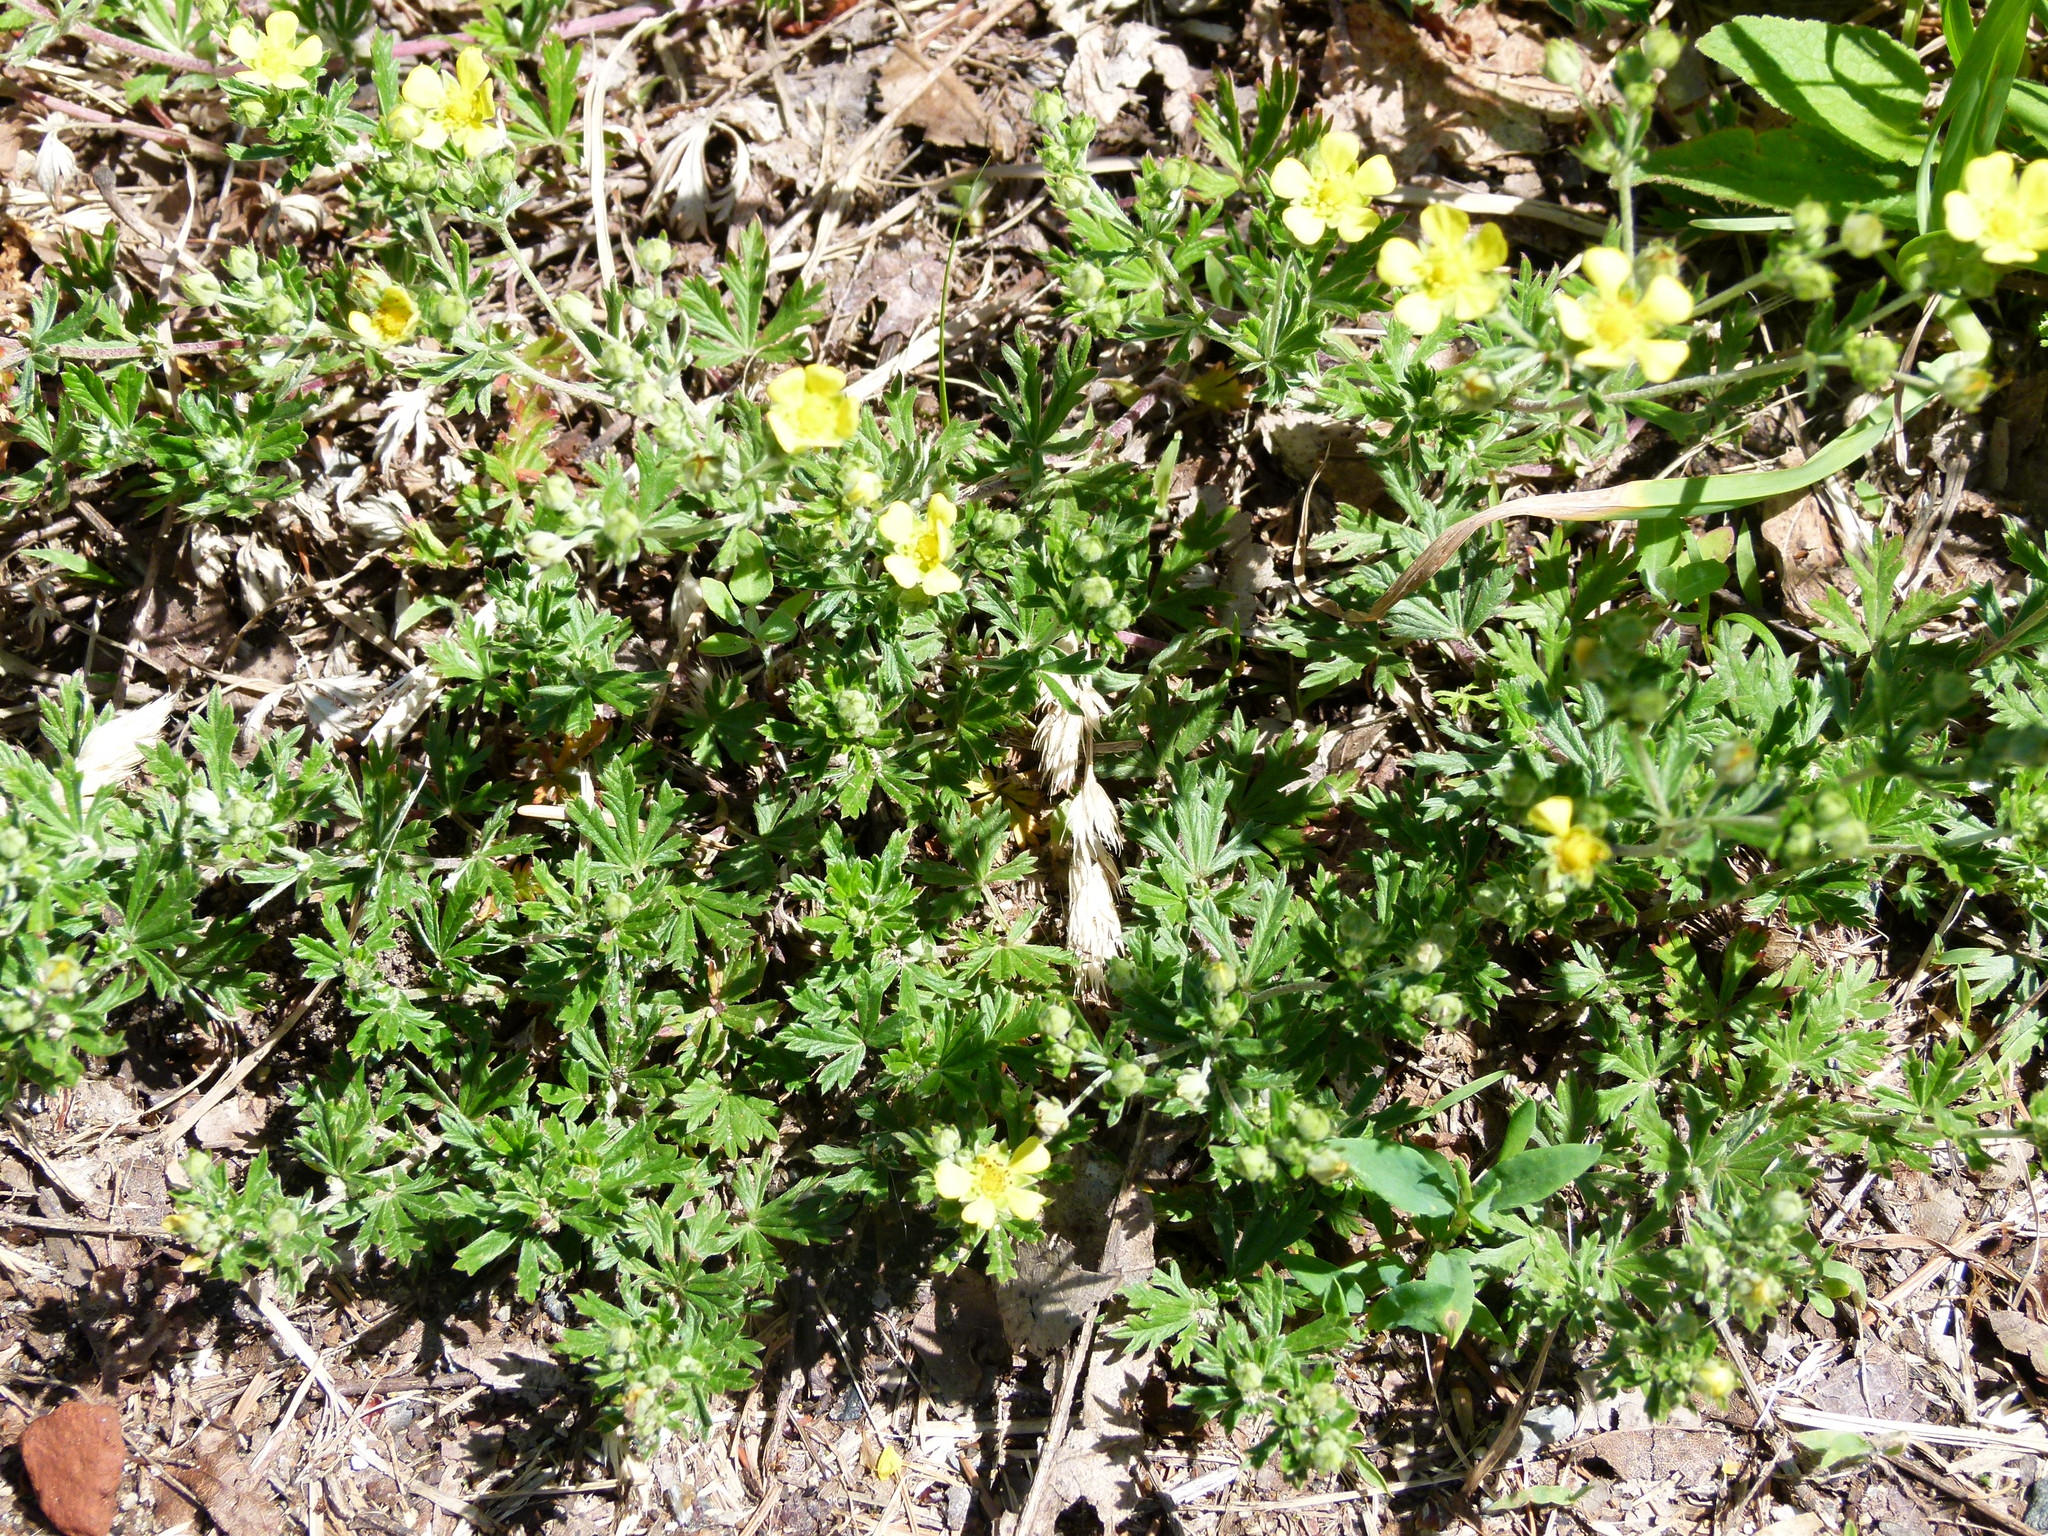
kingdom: Plantae
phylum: Tracheophyta
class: Magnoliopsida
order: Rosales
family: Rosaceae
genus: Potentilla
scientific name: Potentilla argentea
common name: Hoary cinquefoil
